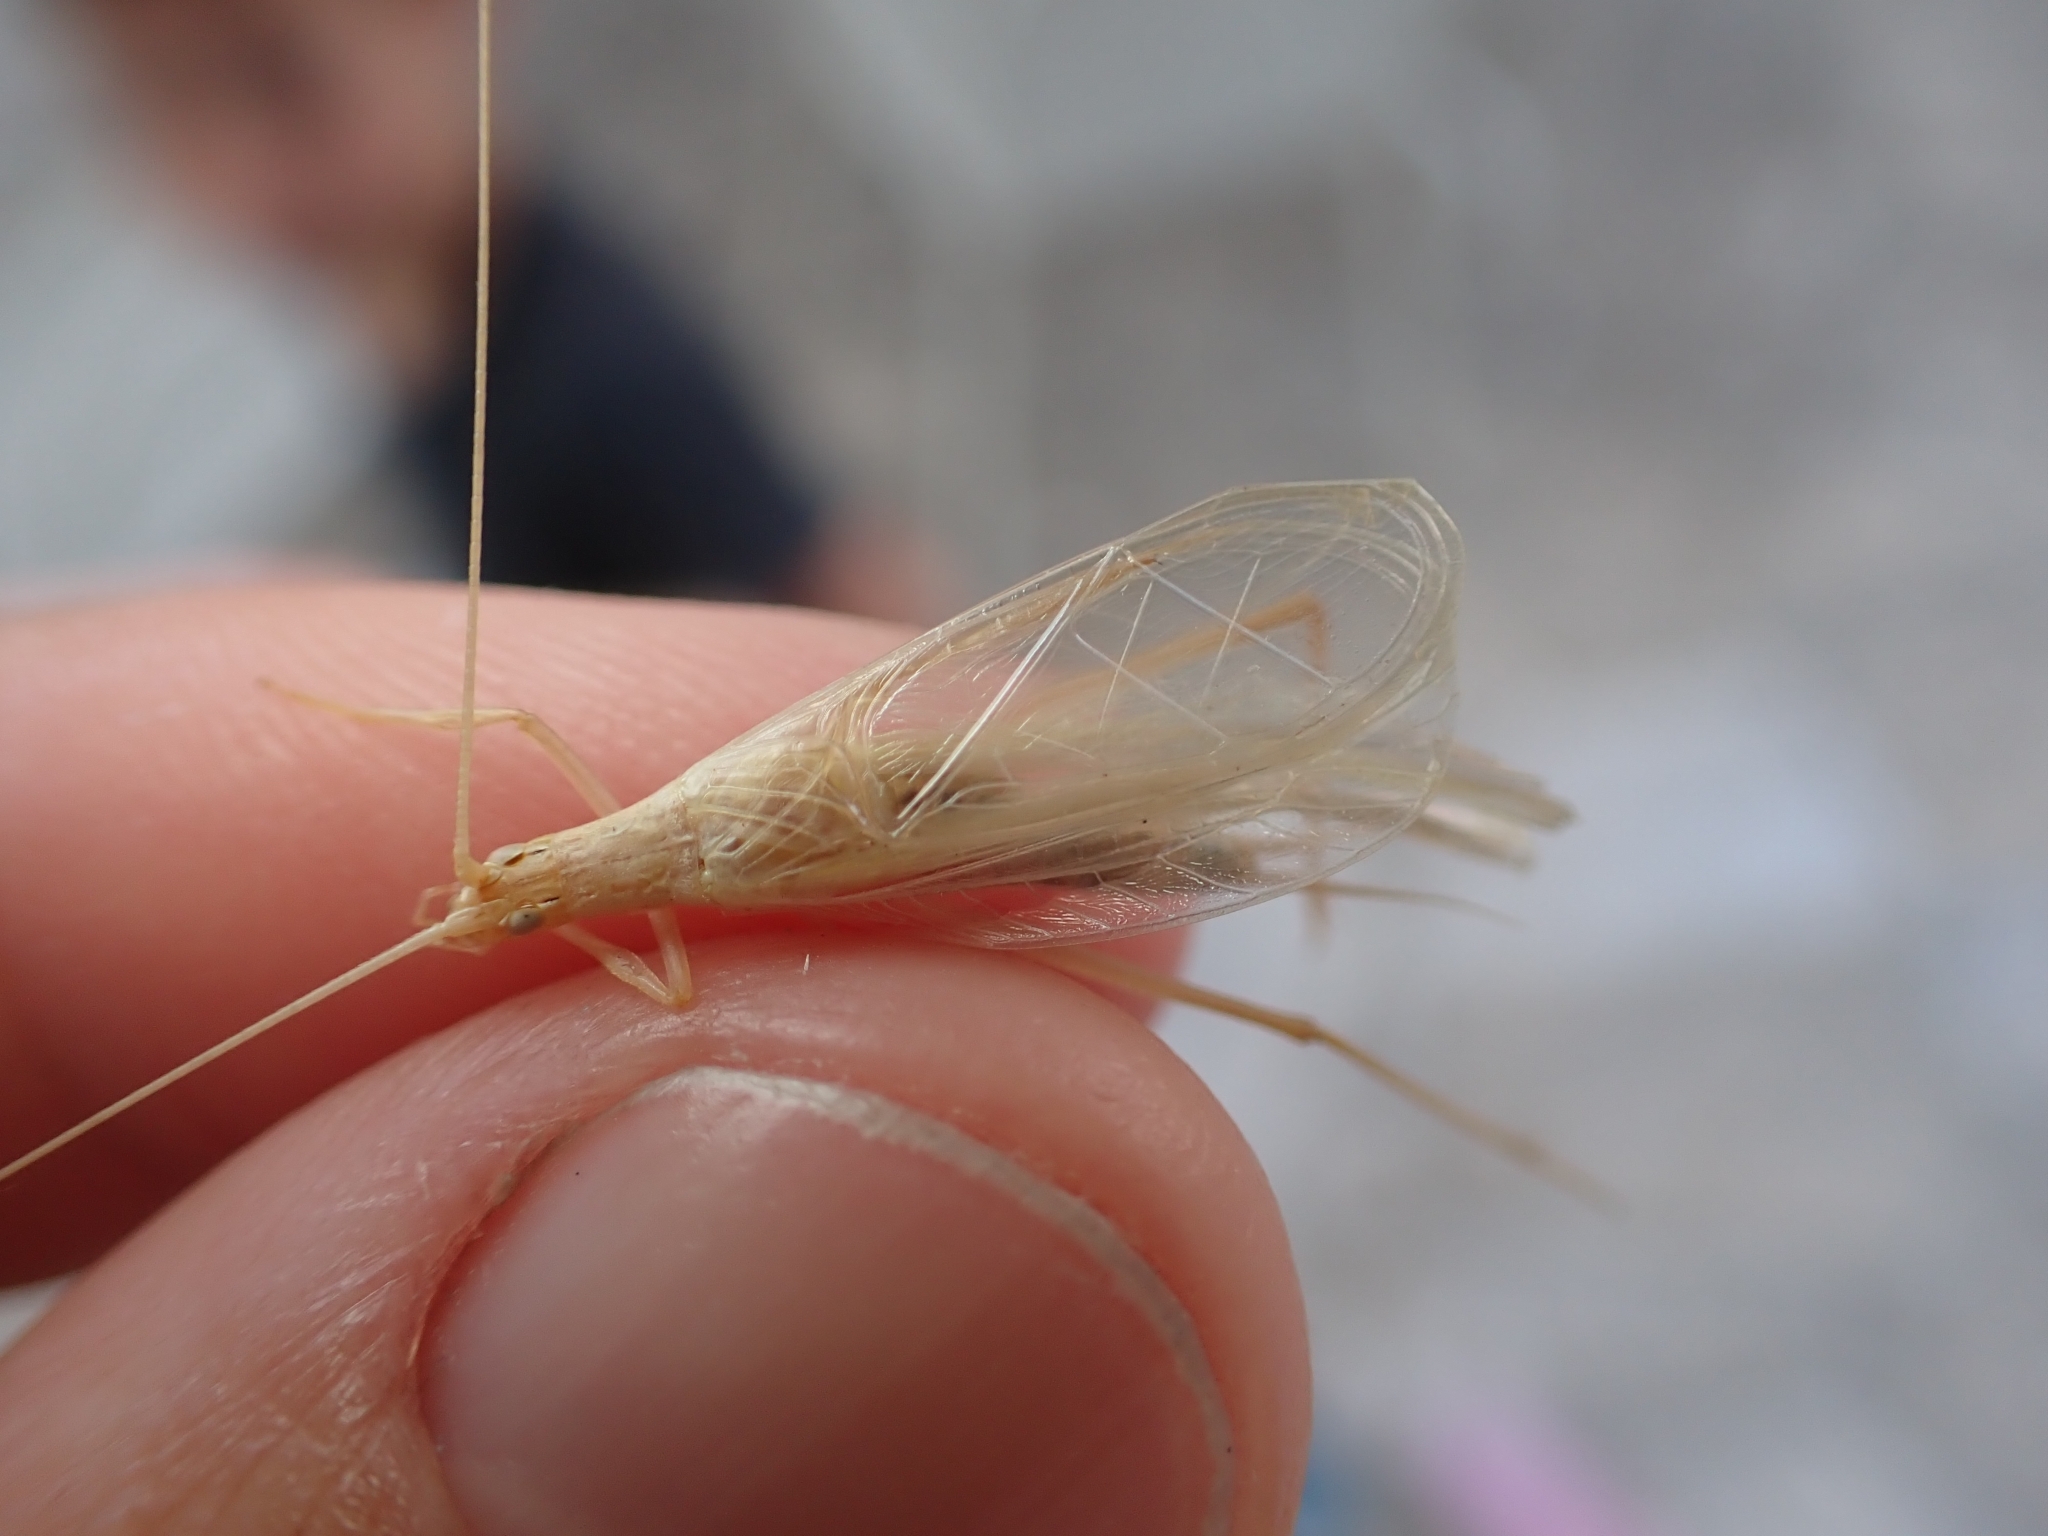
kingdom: Animalia
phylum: Arthropoda
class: Insecta
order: Orthoptera
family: Gryllidae
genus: Oecanthus
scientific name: Oecanthus dulcisonans
